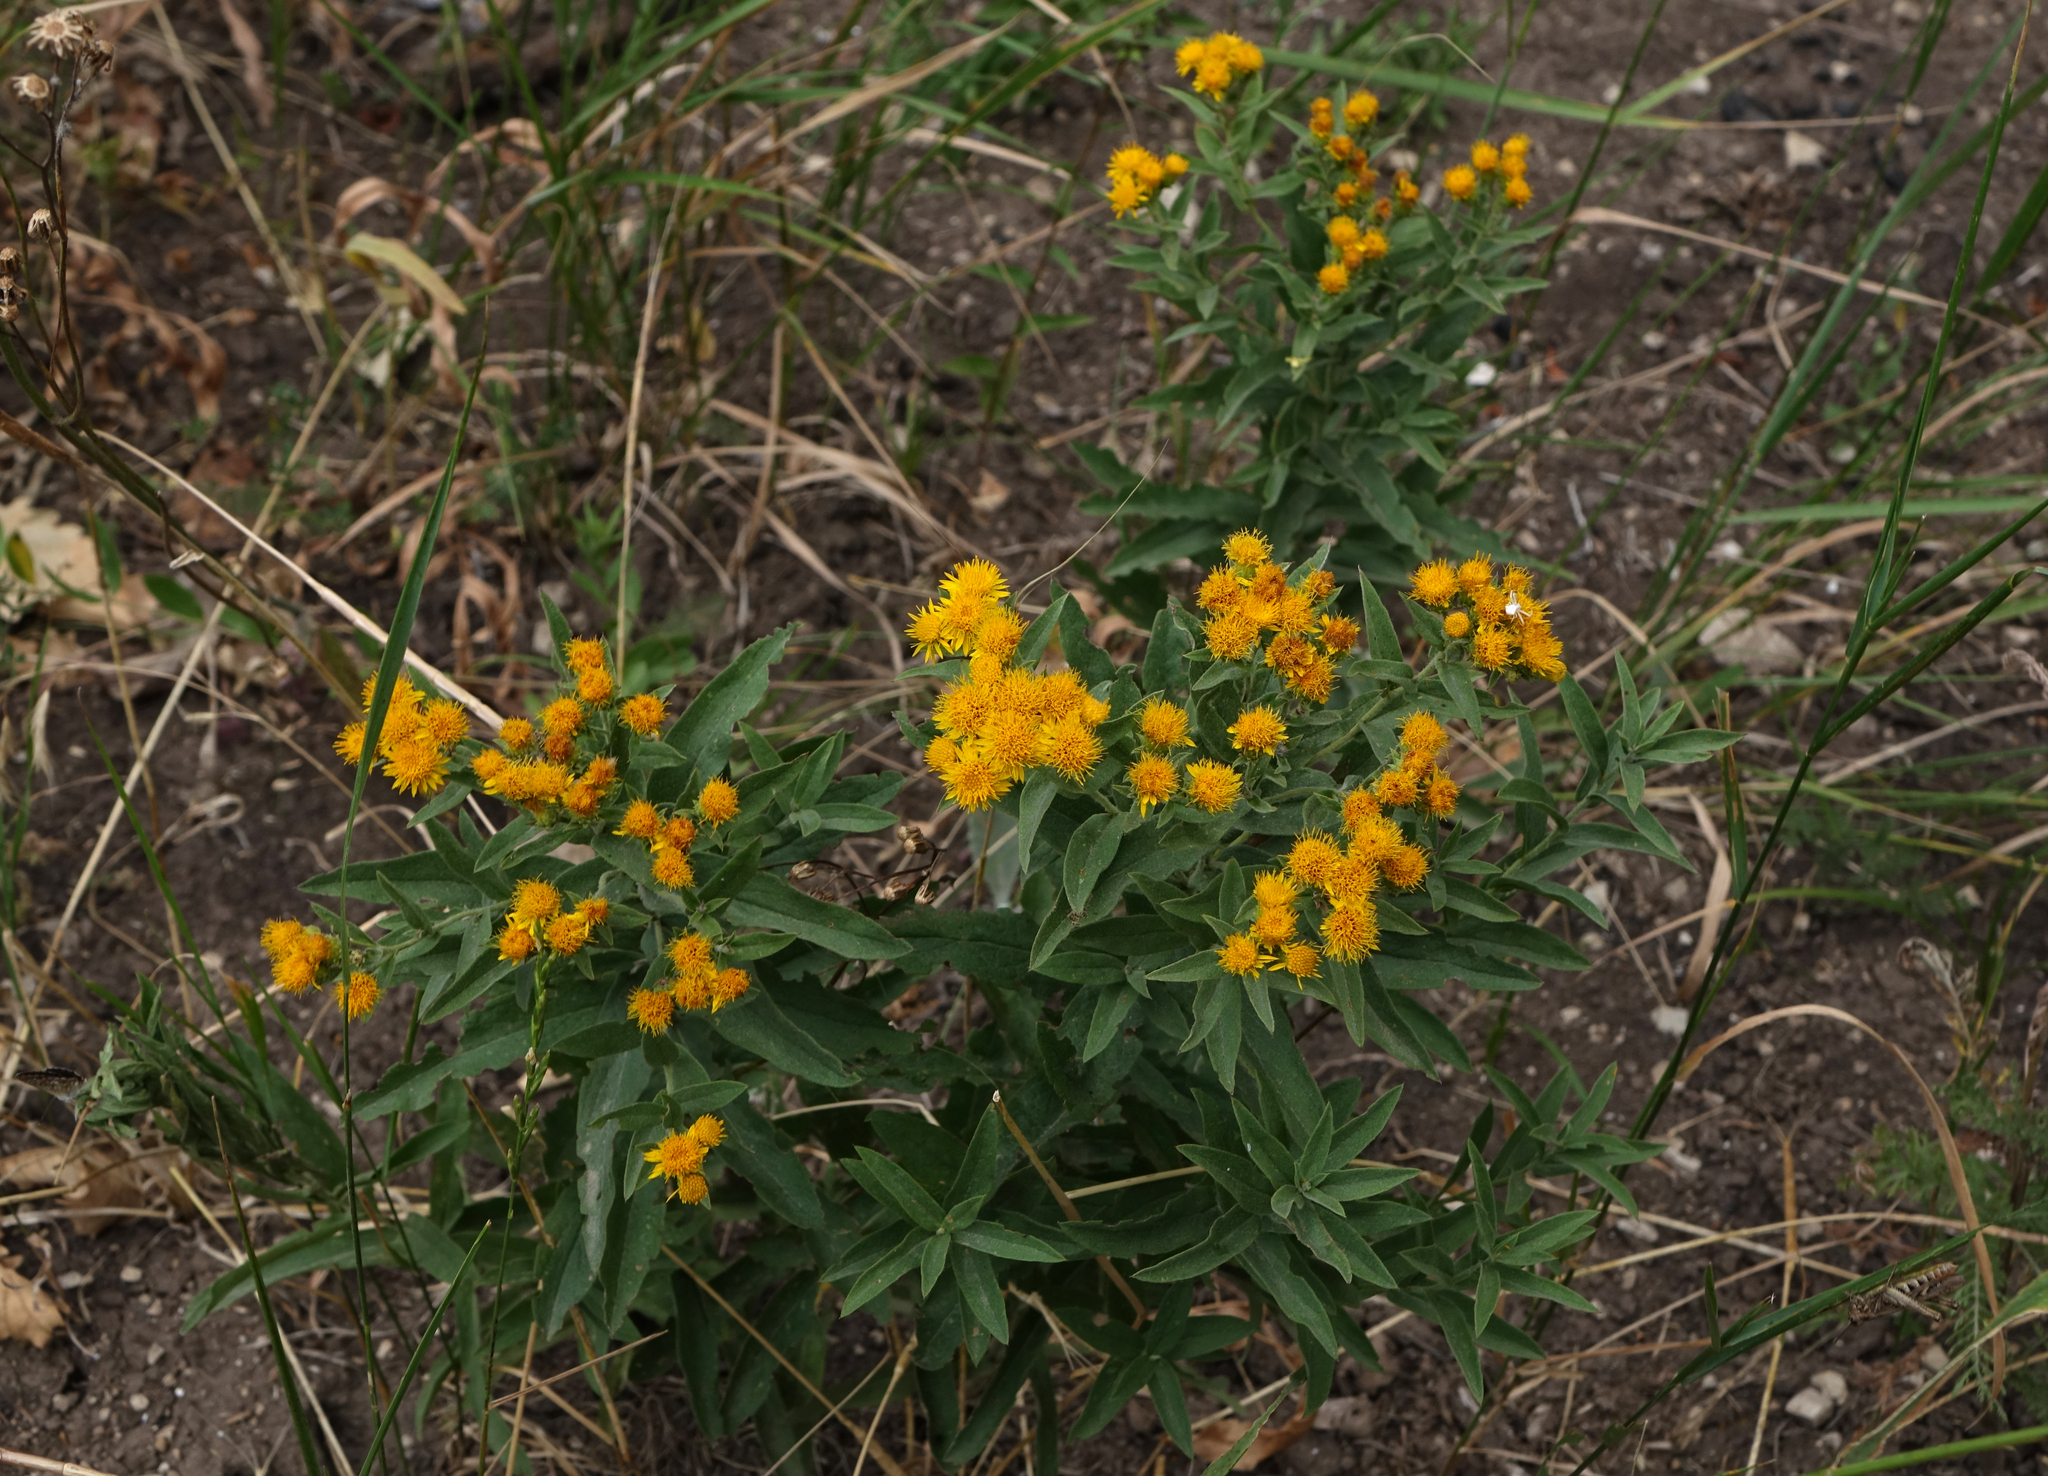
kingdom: Plantae
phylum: Tracheophyta
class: Magnoliopsida
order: Asterales
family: Asteraceae
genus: Pentanema
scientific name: Pentanema germanicum
